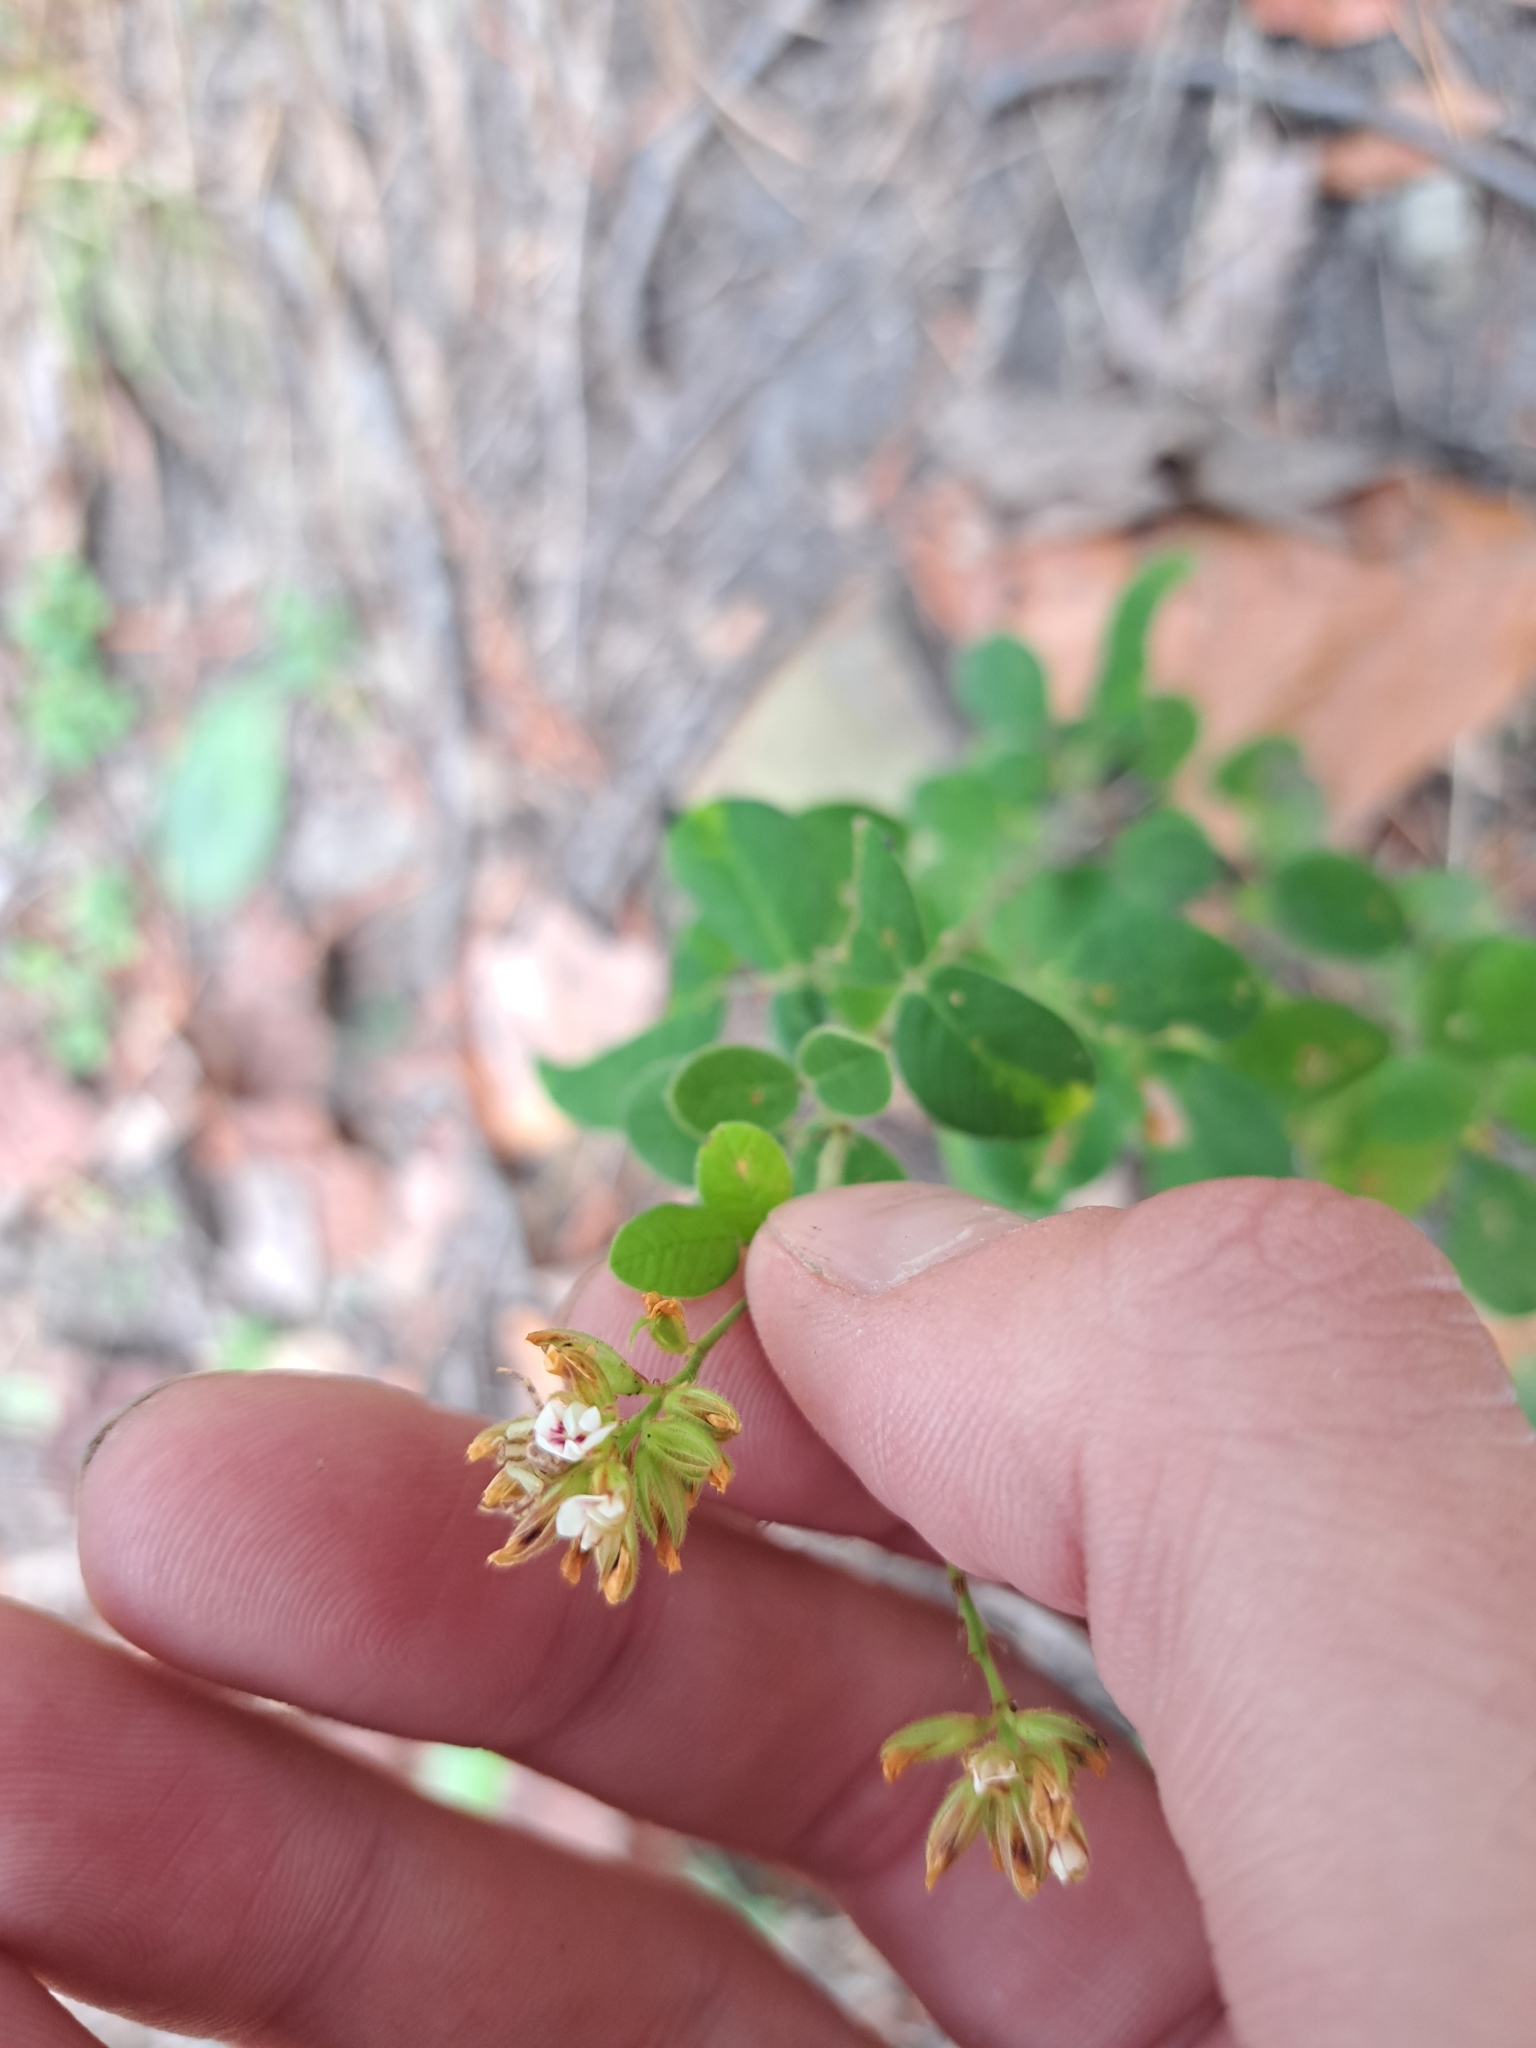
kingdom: Plantae
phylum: Tracheophyta
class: Magnoliopsida
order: Fabales
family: Fabaceae
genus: Lespedeza
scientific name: Lespedeza hirta
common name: Hairy lespedeza
